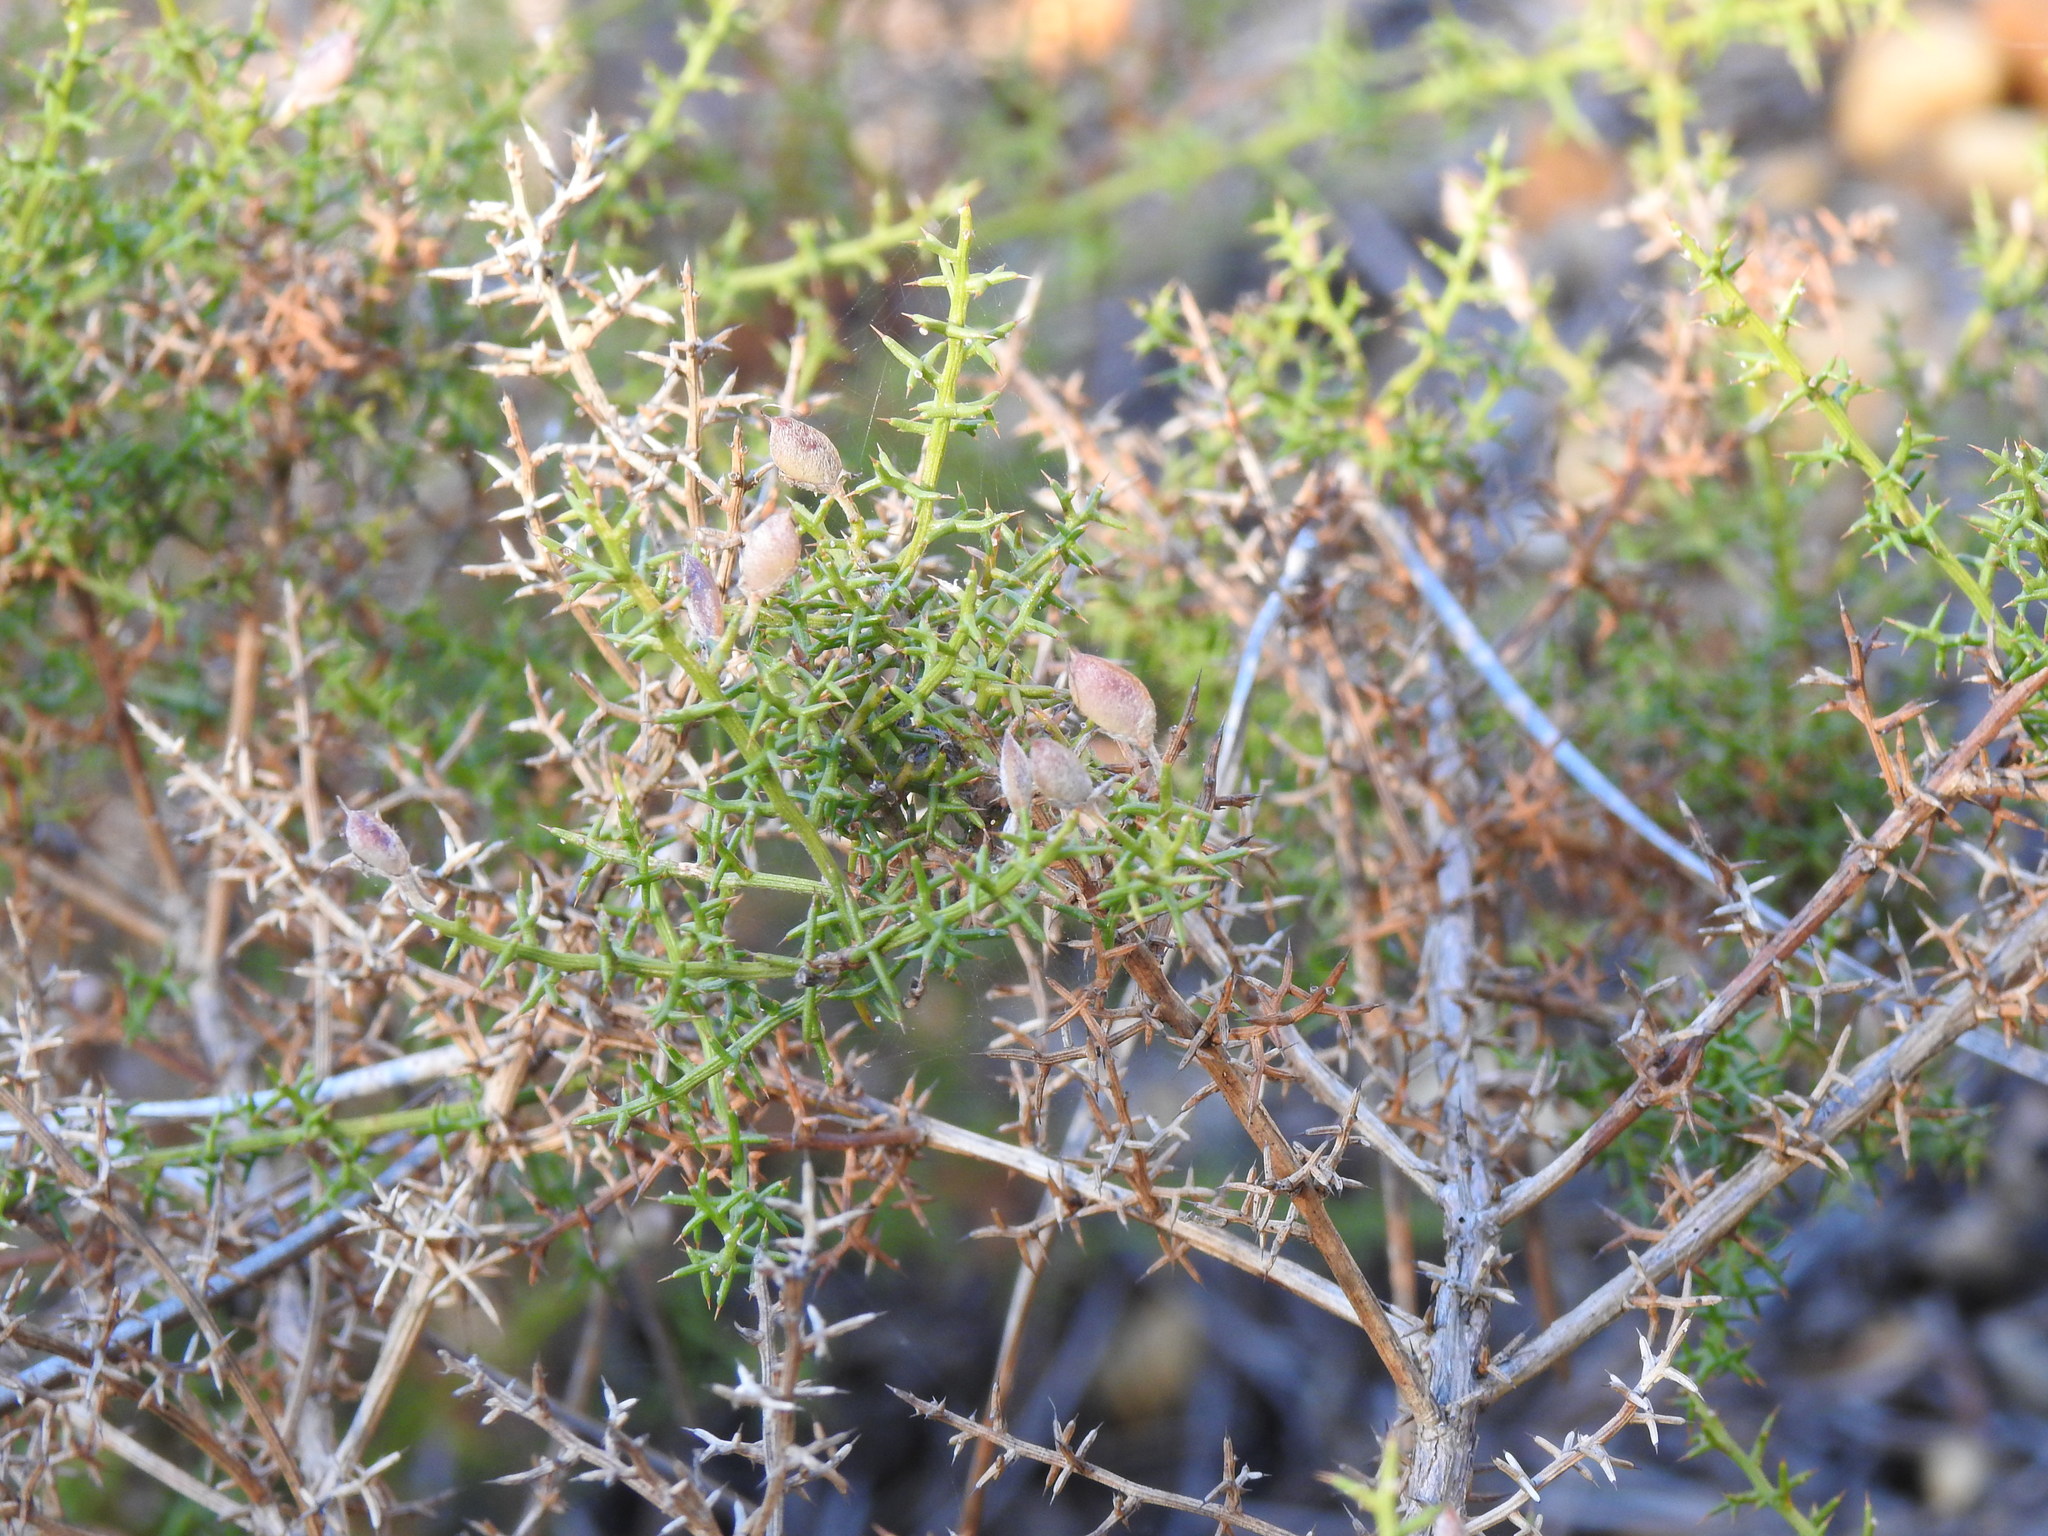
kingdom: Plantae
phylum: Tracheophyta
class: Magnoliopsida
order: Fabales
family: Fabaceae
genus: Stauracanthus
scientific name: Stauracanthus boivinii
